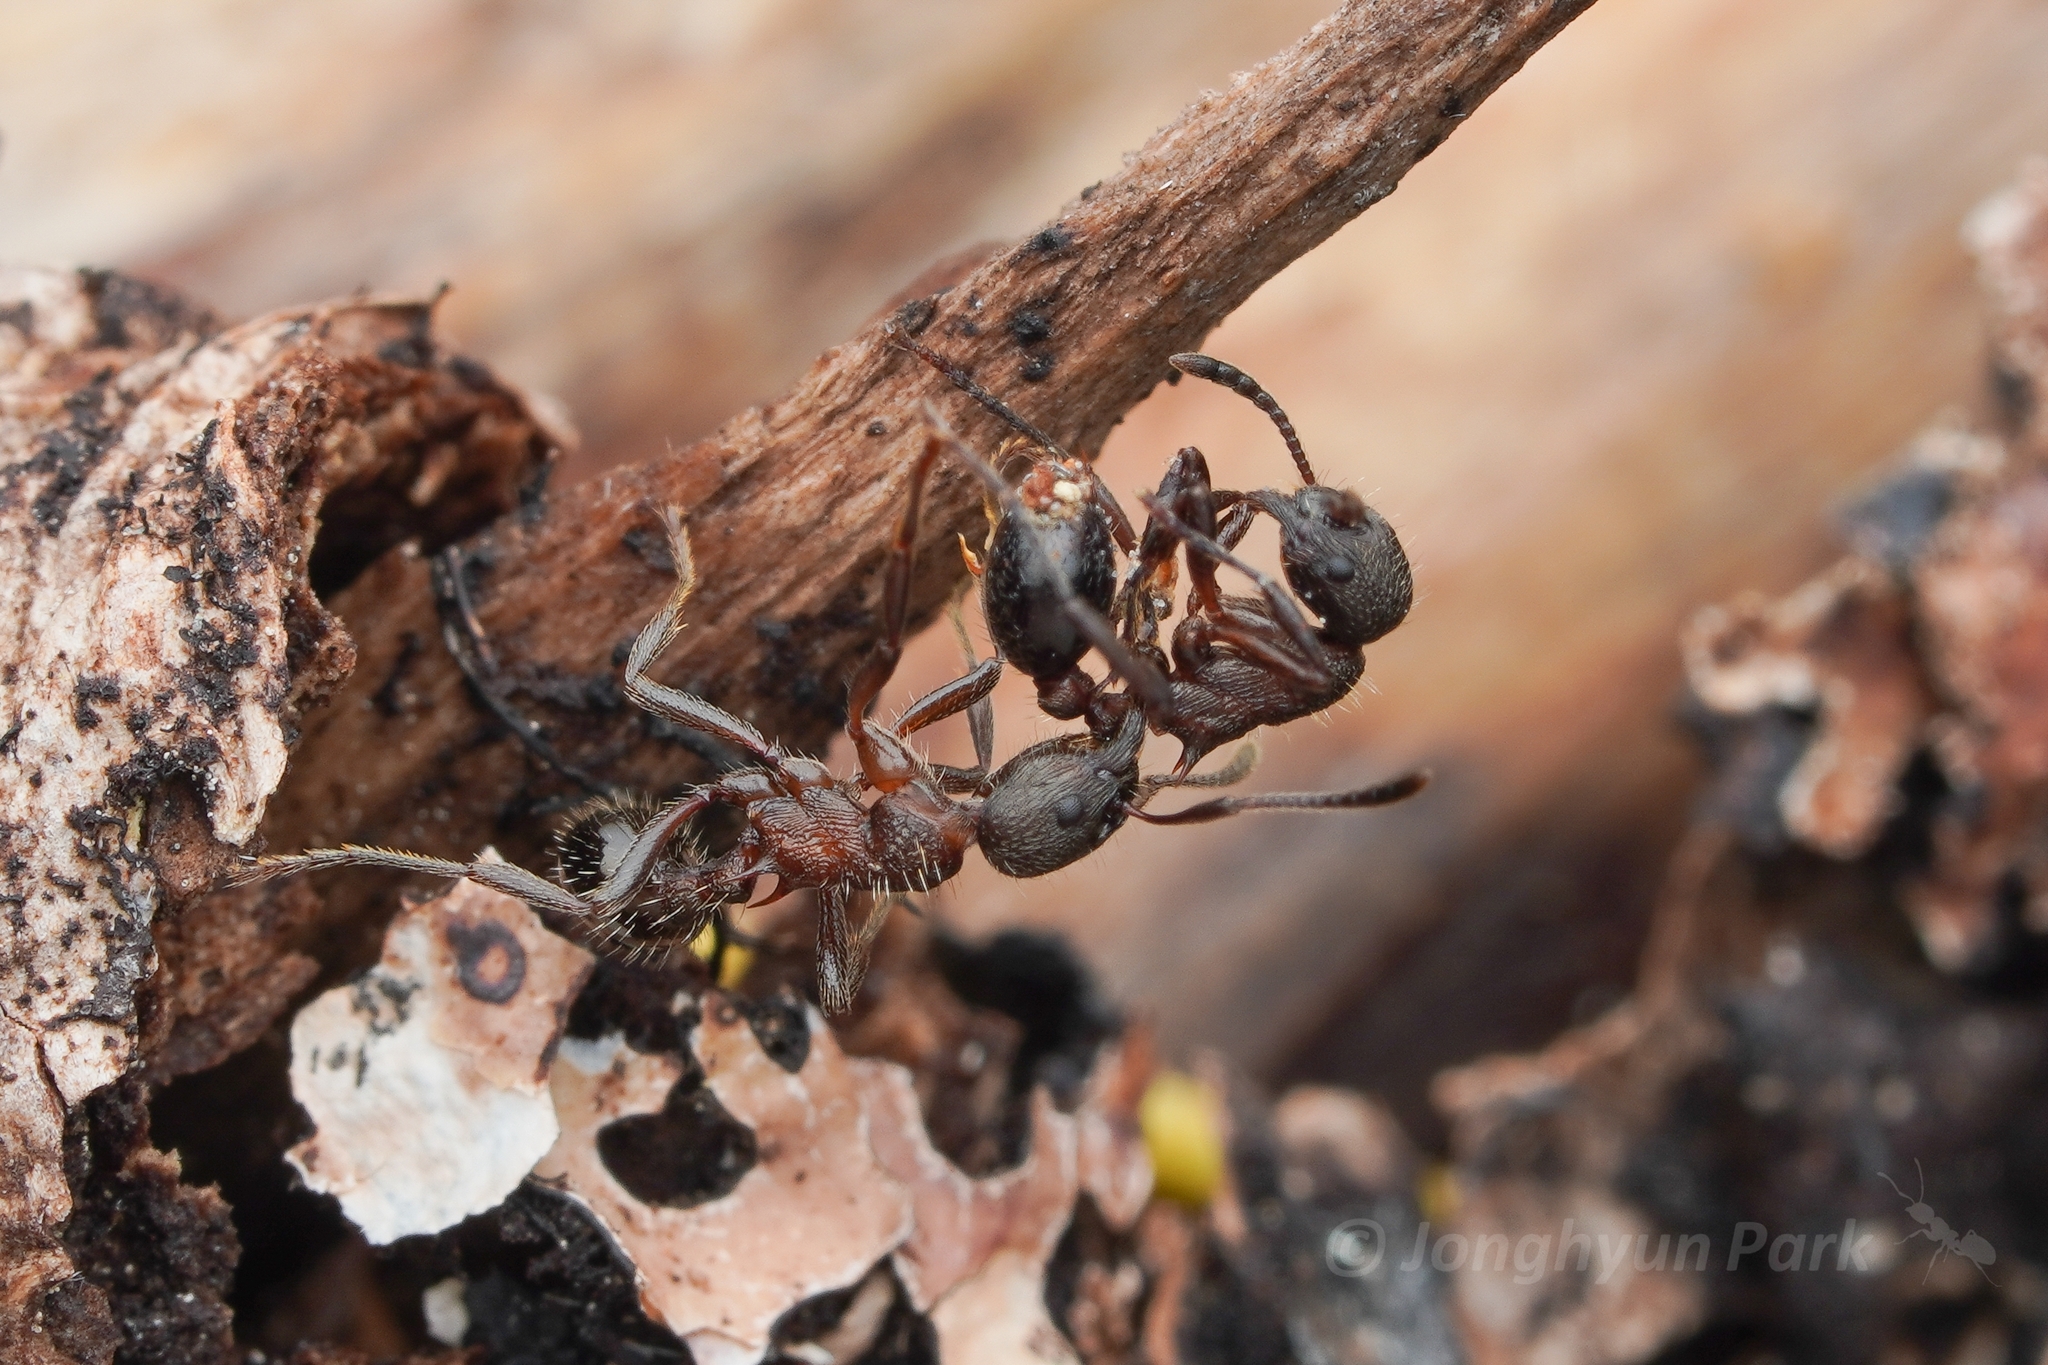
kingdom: Animalia
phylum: Arthropoda
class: Insecta
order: Hymenoptera
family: Formicidae
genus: Myrmica
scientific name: Myrmica kurokii
